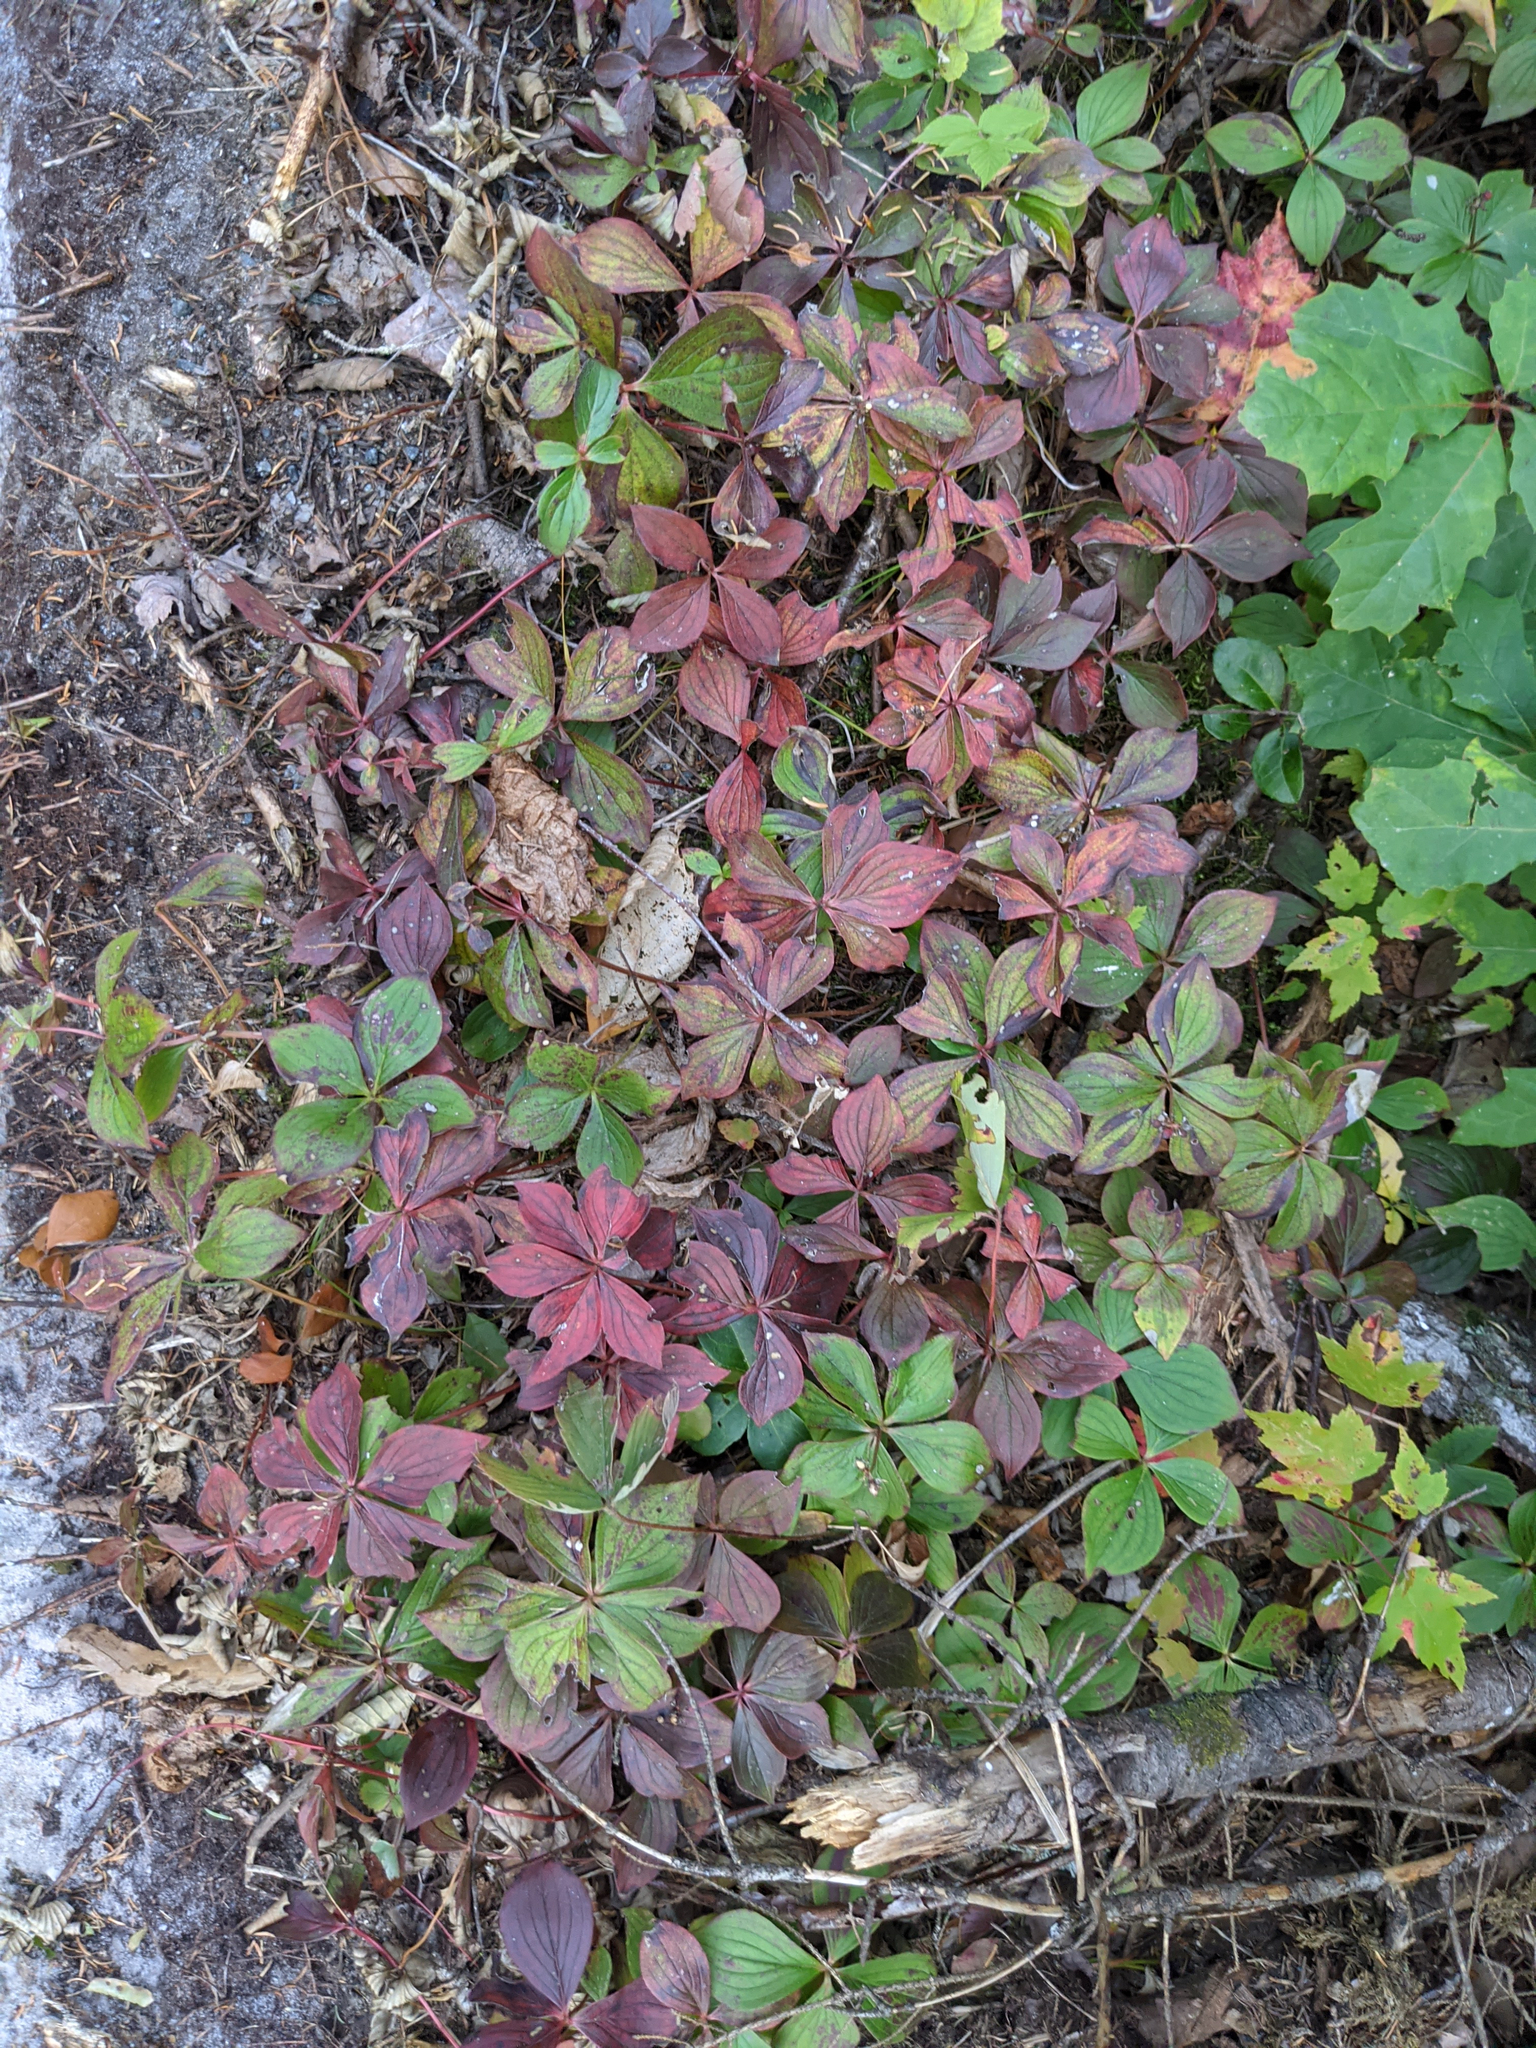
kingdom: Plantae
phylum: Tracheophyta
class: Magnoliopsida
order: Cornales
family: Cornaceae
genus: Cornus
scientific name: Cornus canadensis
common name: Creeping dogwood
